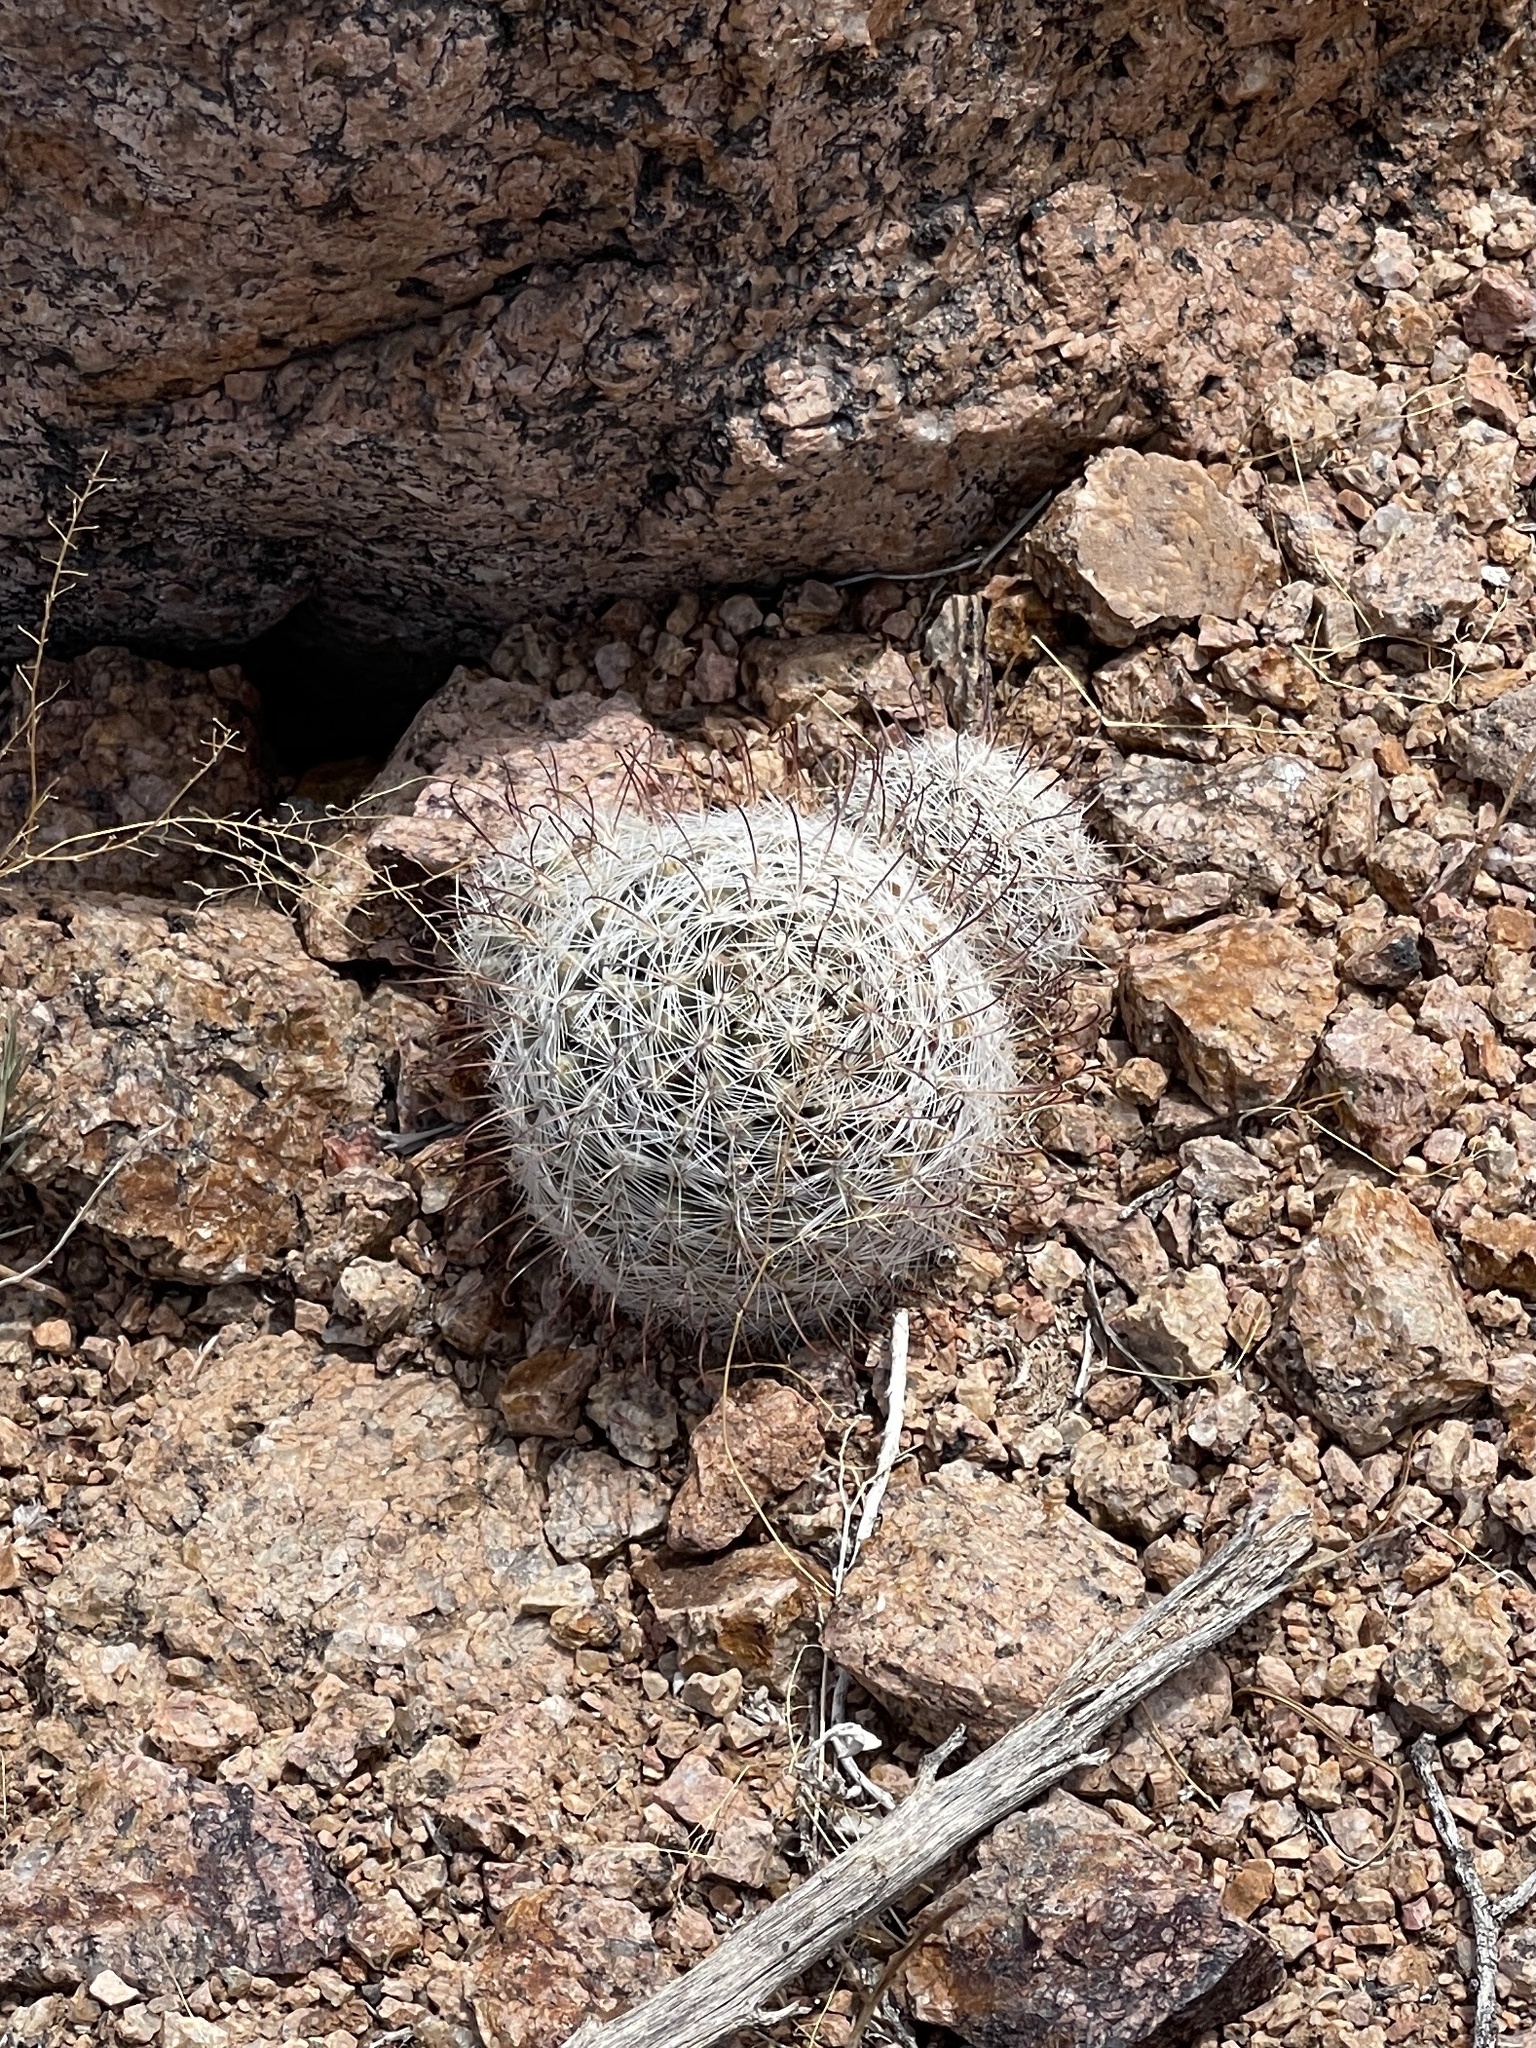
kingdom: Plantae
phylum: Tracheophyta
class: Magnoliopsida
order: Caryophyllales
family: Cactaceae
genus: Cochemiea
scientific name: Cochemiea grahamii
